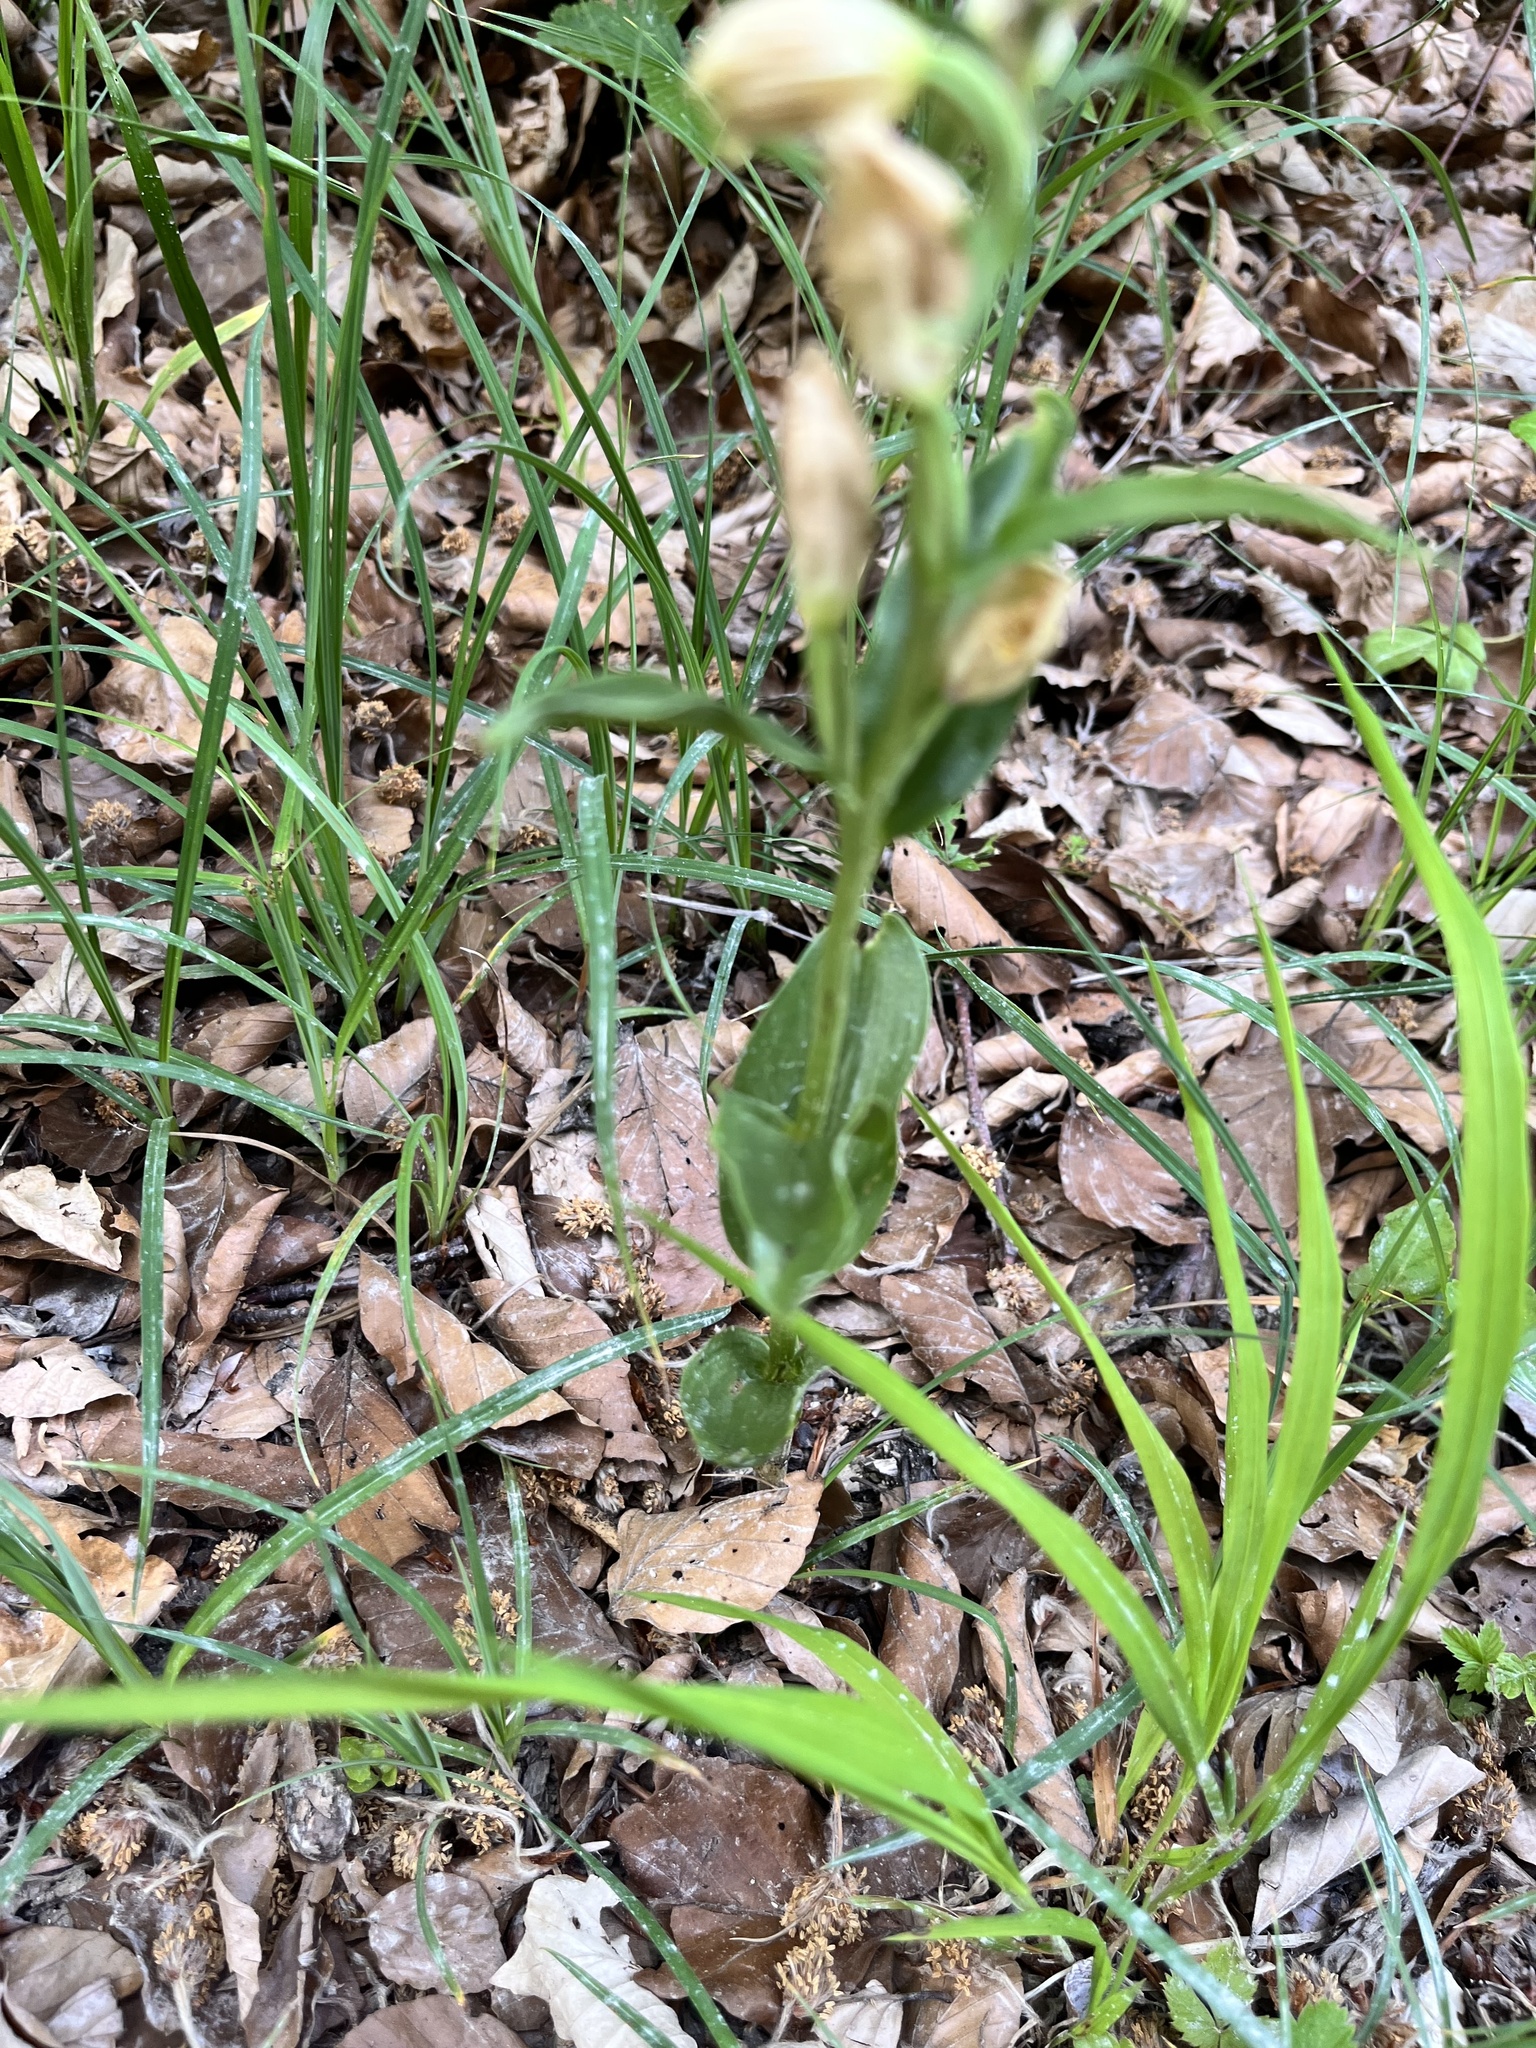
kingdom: Plantae
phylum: Tracheophyta
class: Liliopsida
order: Asparagales
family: Orchidaceae
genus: Cephalanthera
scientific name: Cephalanthera damasonium
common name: White helleborine
